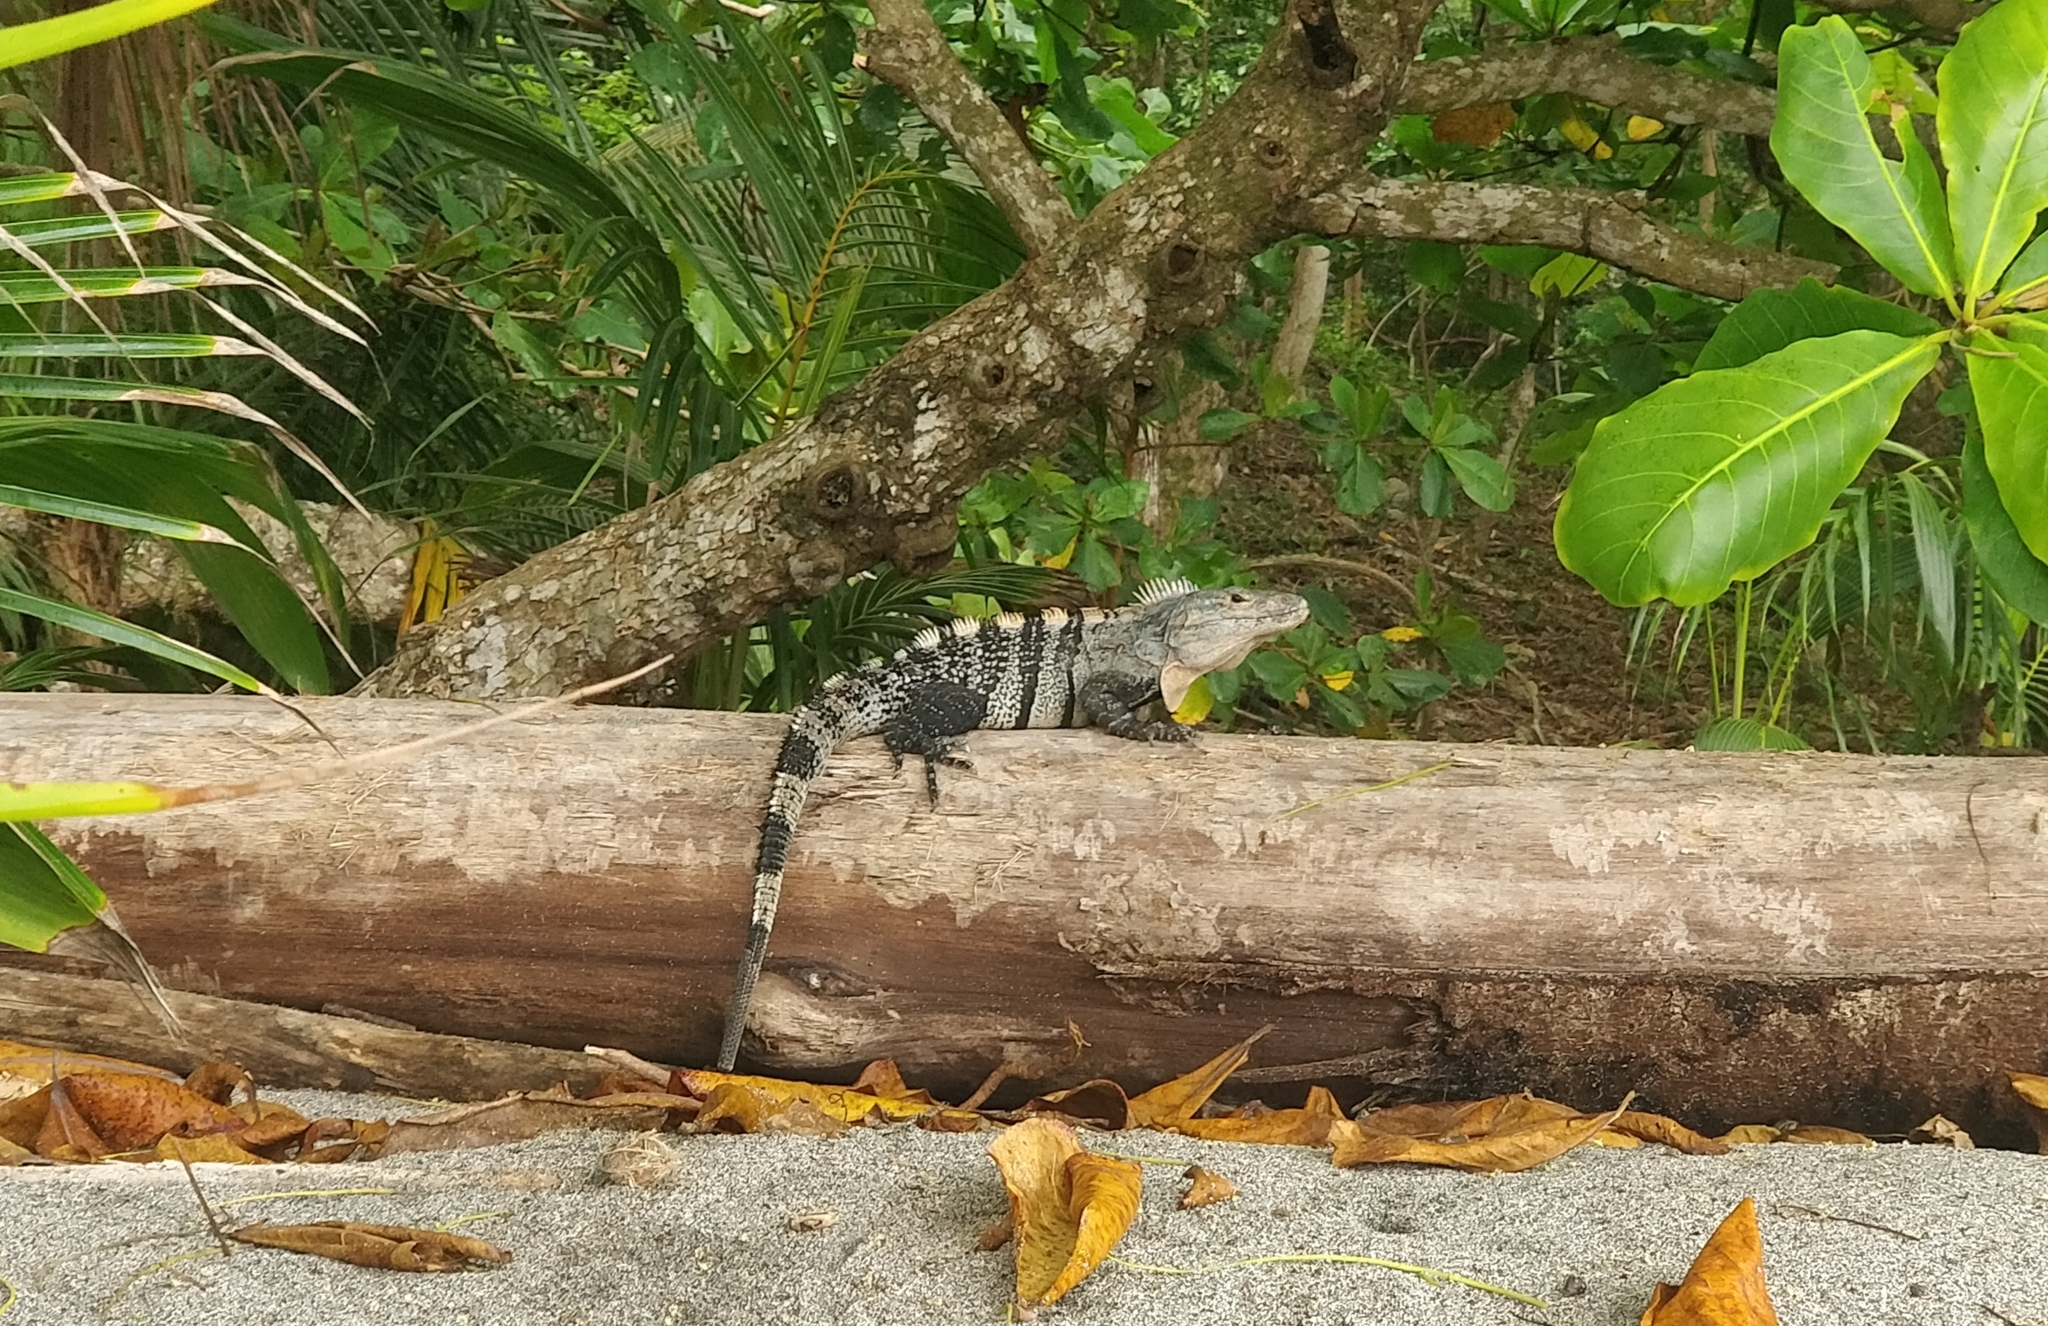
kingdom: Animalia
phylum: Chordata
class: Squamata
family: Iguanidae
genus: Ctenosaura
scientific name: Ctenosaura similis
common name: Black spiny-tailed iguana
